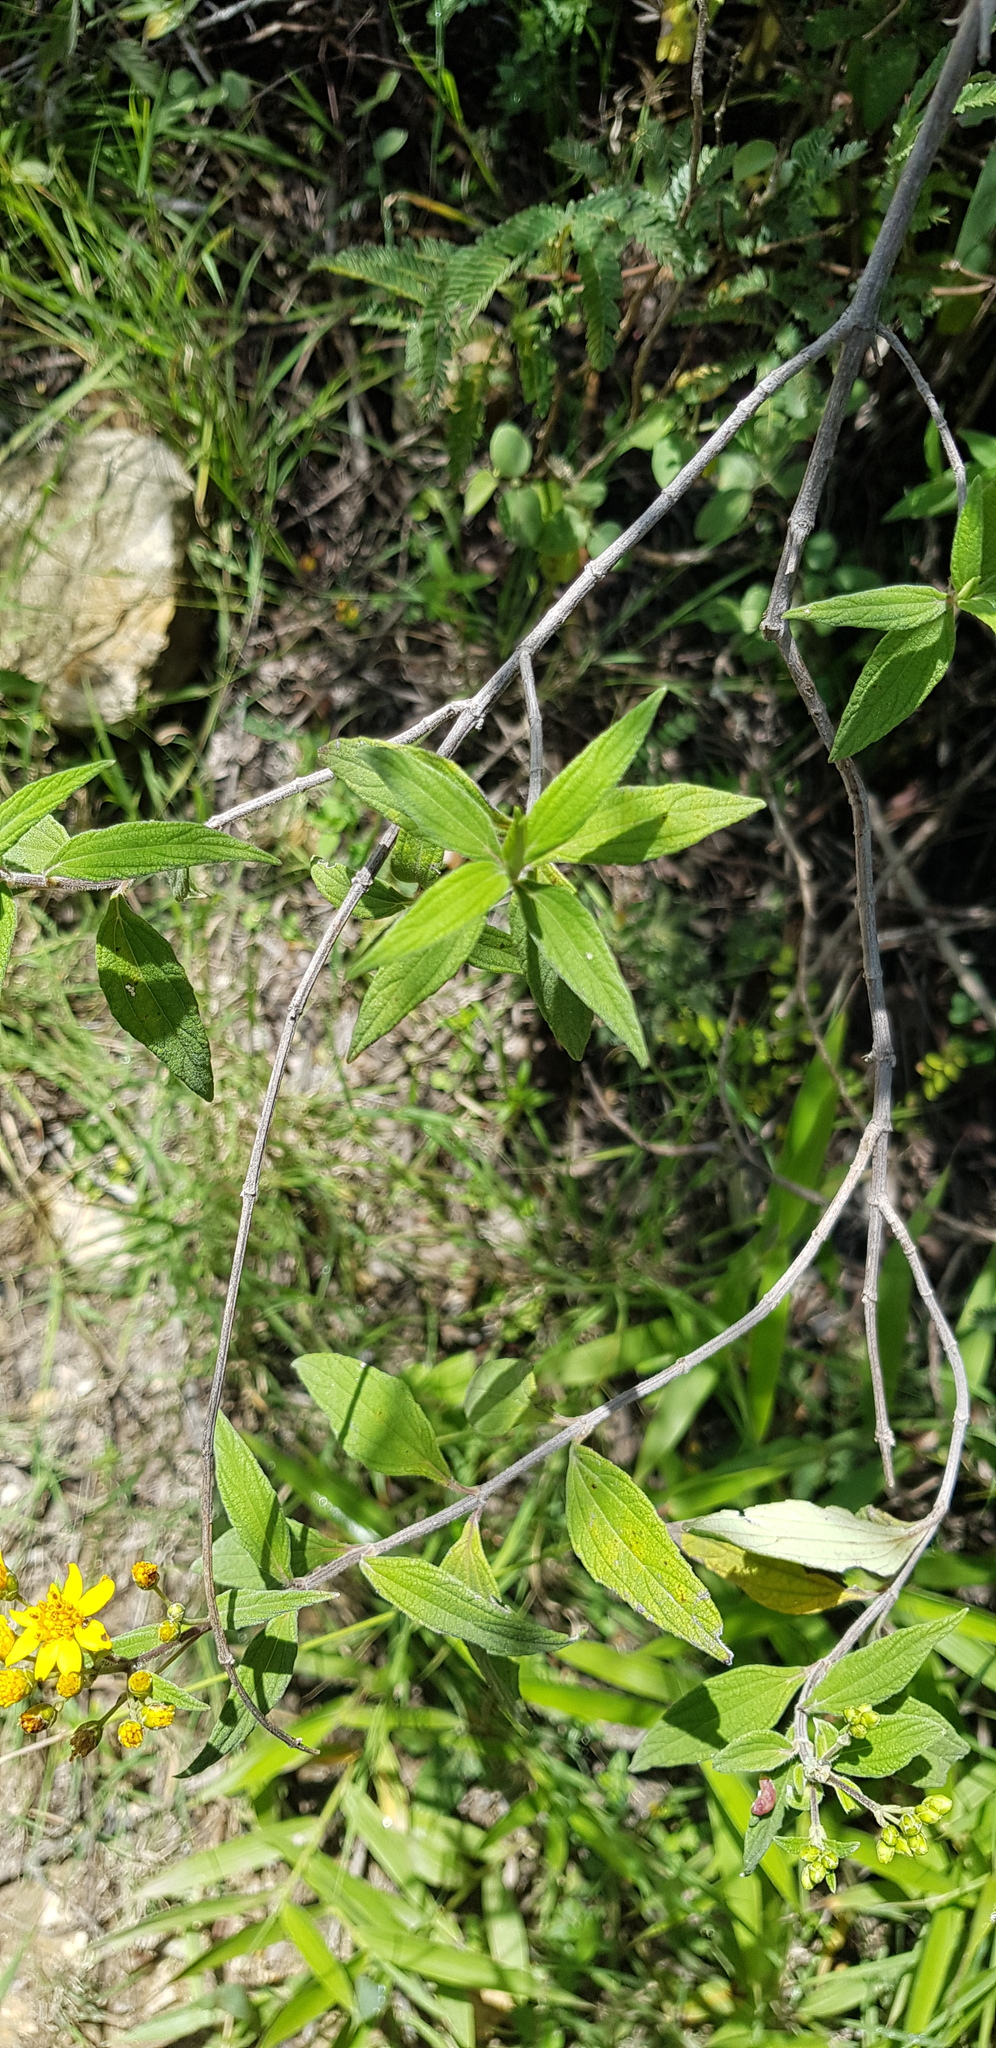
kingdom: Plantae
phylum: Tracheophyta
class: Magnoliopsida
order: Asterales
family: Asteraceae
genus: Perymenium
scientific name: Perymenium discolor
